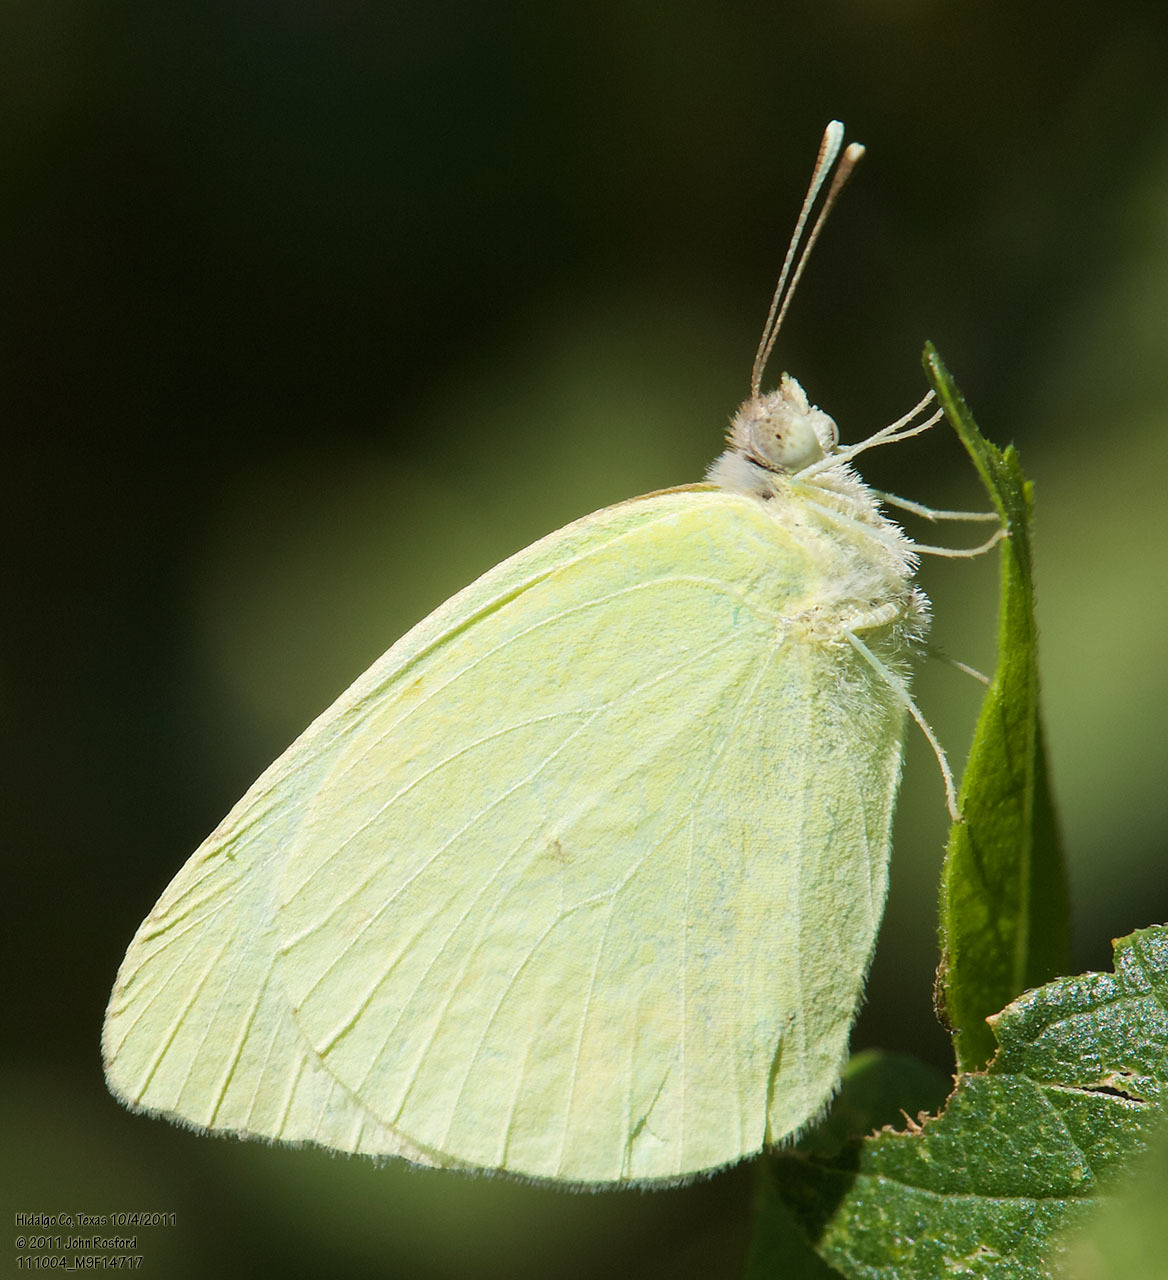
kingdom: Animalia
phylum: Arthropoda
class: Insecta
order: Lepidoptera
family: Pieridae
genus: Kricogonia
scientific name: Kricogonia lyside
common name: Guayacan sulphur,
